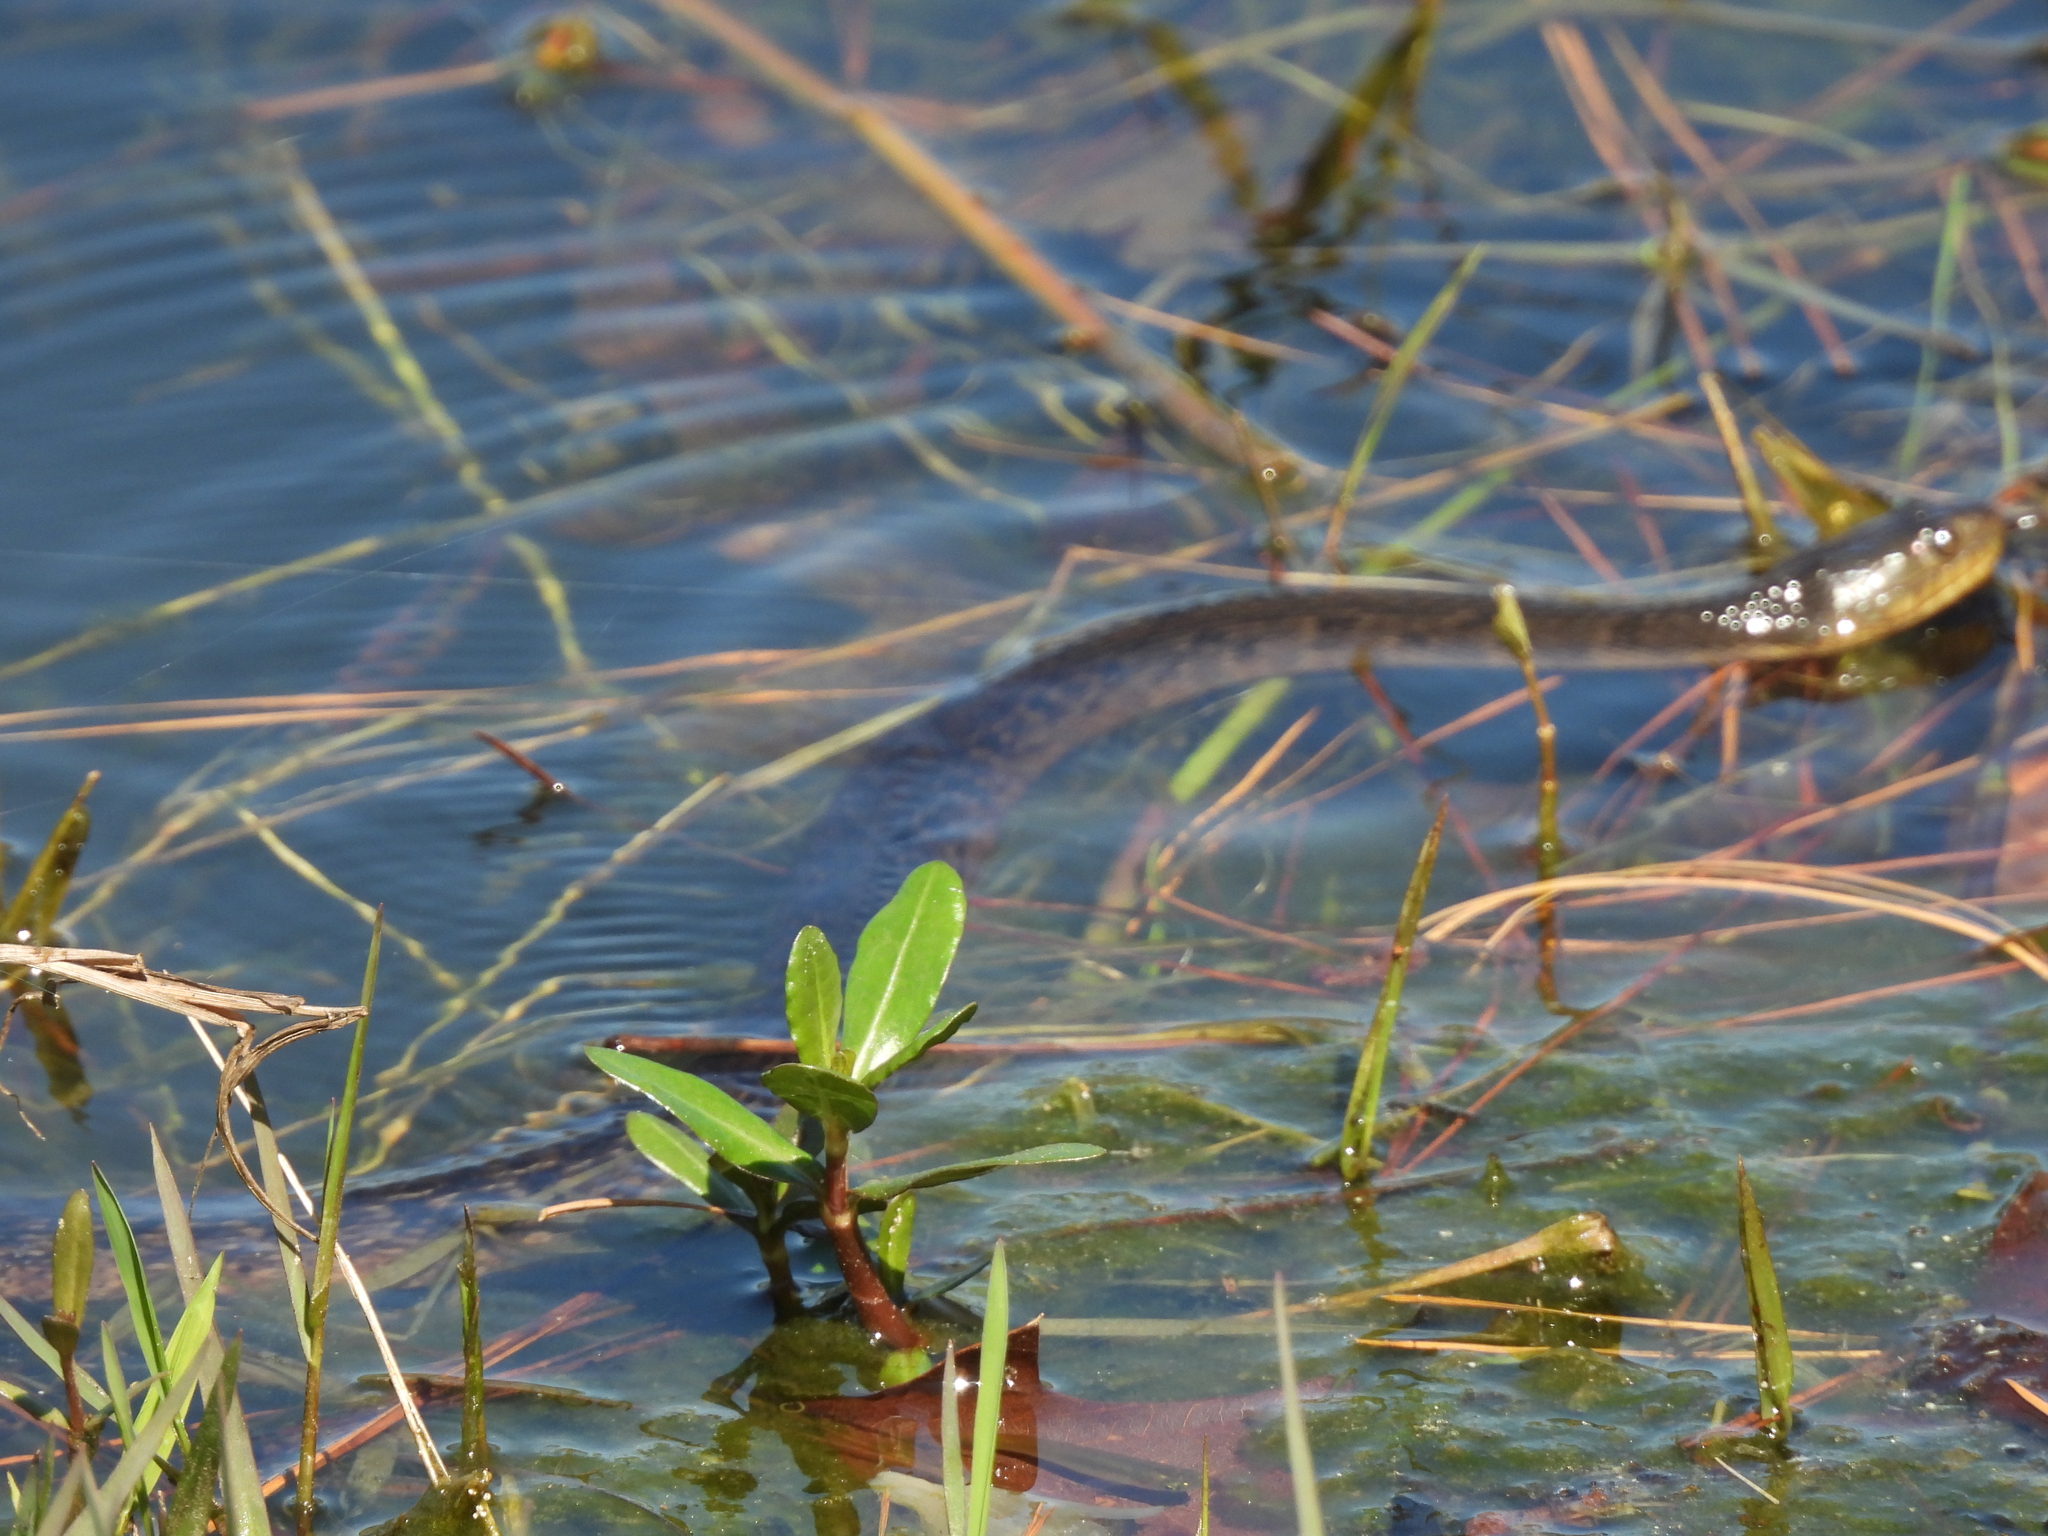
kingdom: Animalia
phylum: Chordata
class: Squamata
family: Colubridae
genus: Nerodia
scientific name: Nerodia cyclopion
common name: Mississippi green water snake
